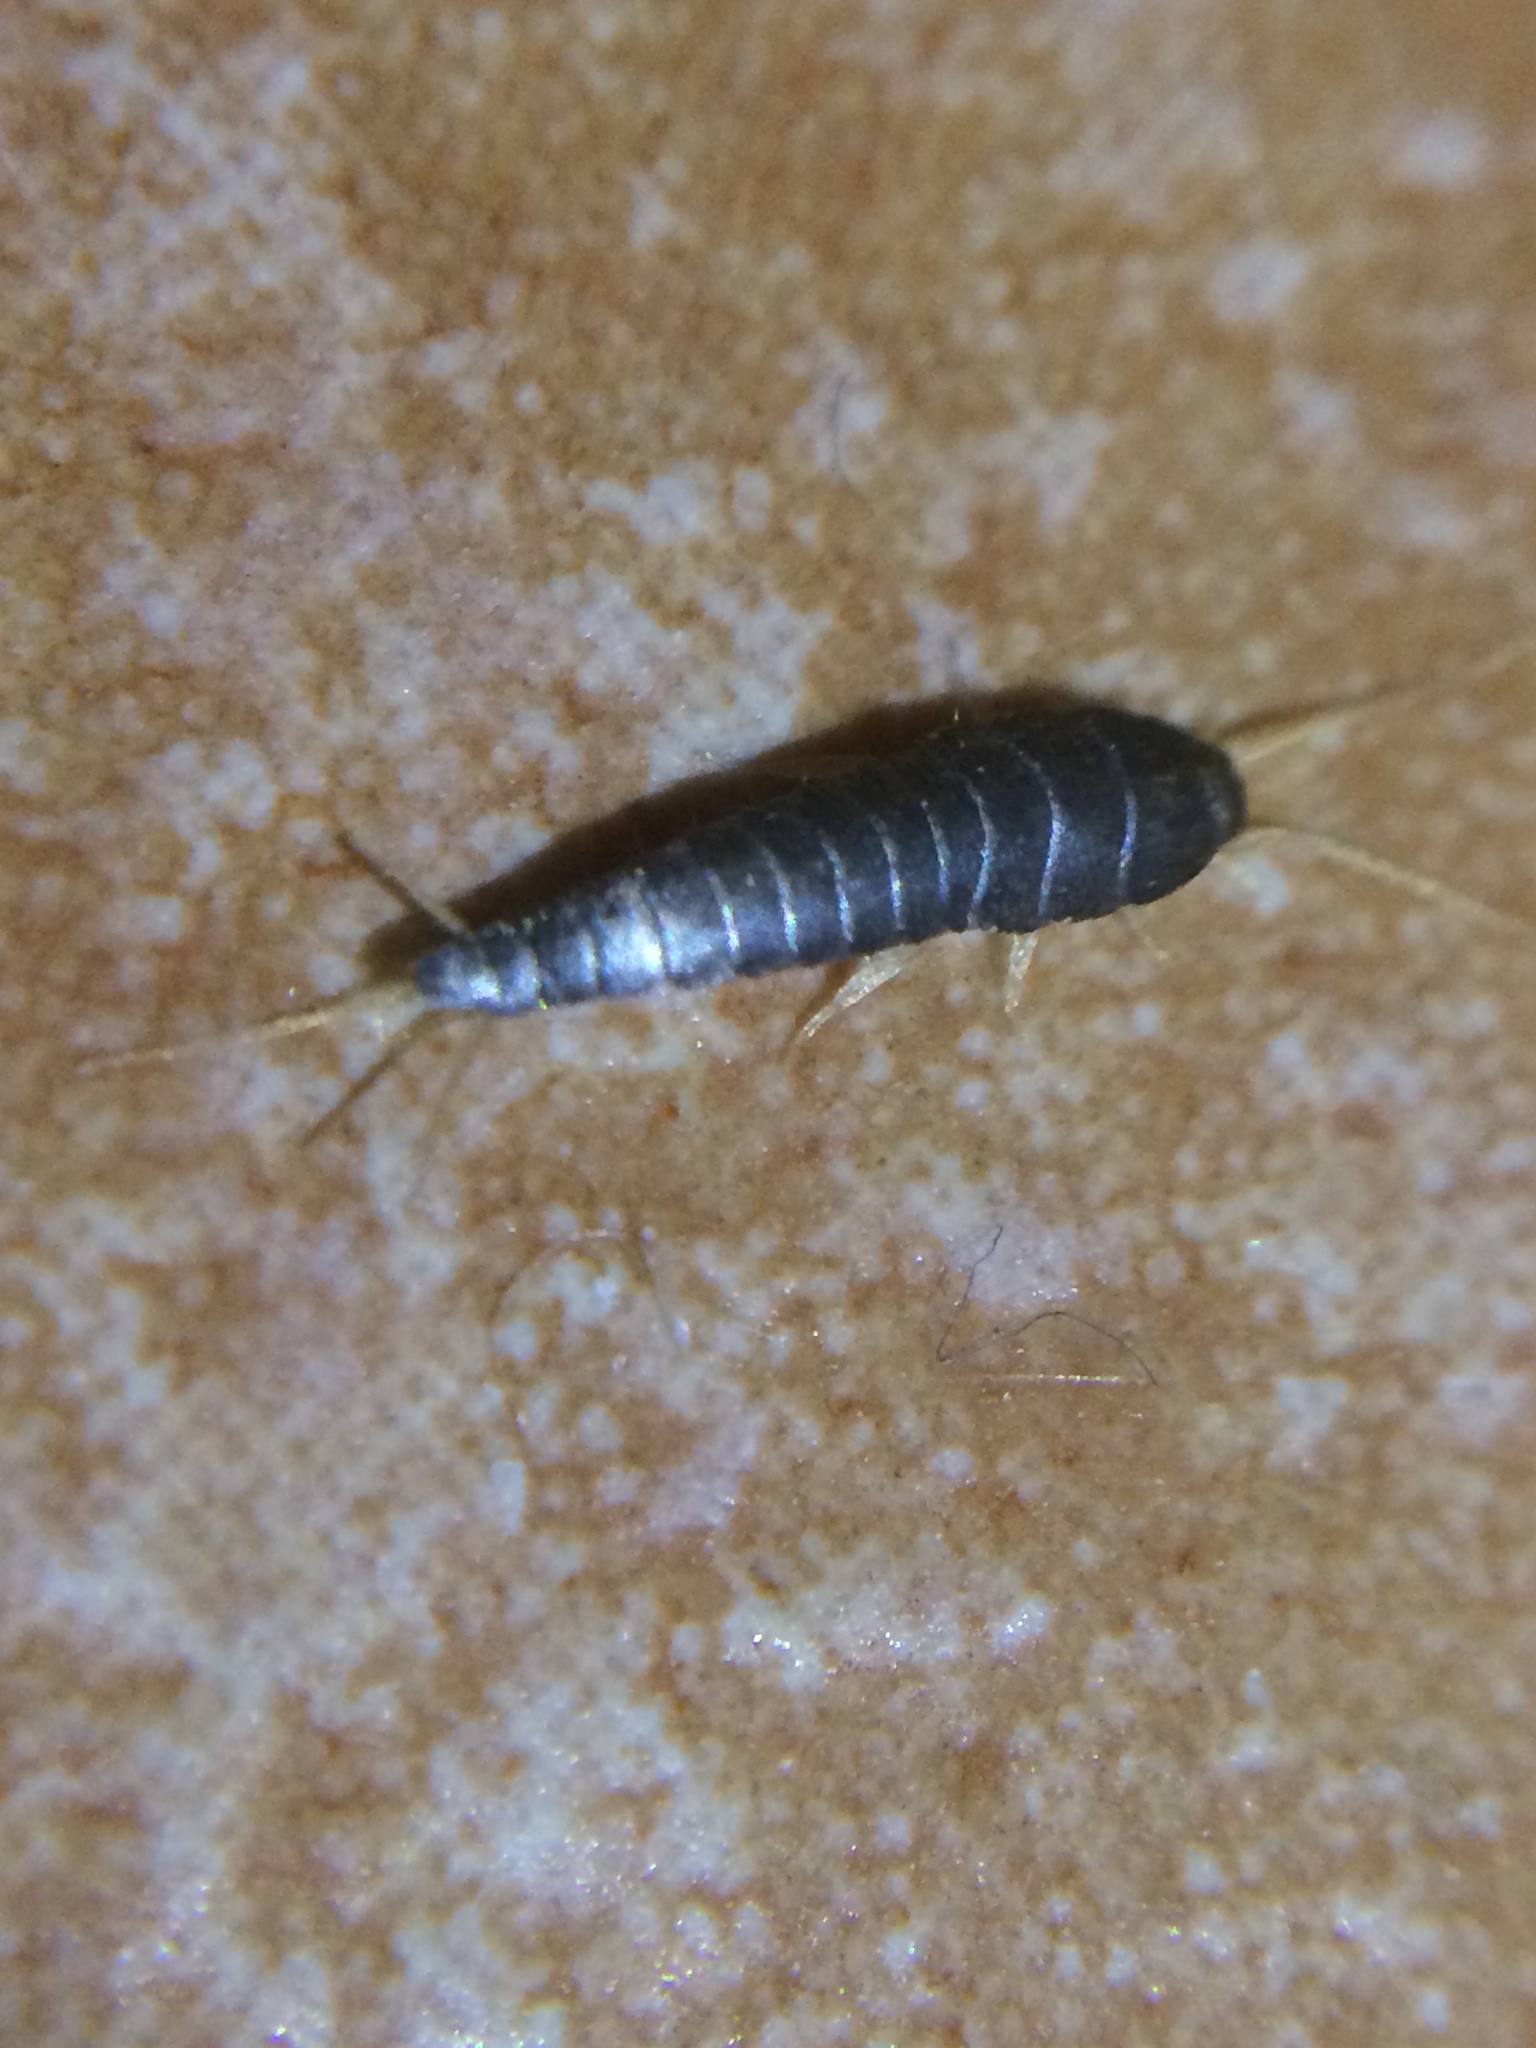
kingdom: Animalia
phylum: Arthropoda
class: Insecta
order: Zygentoma
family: Lepismatidae
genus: Lepisma
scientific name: Lepisma saccharinum
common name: Silverfish
